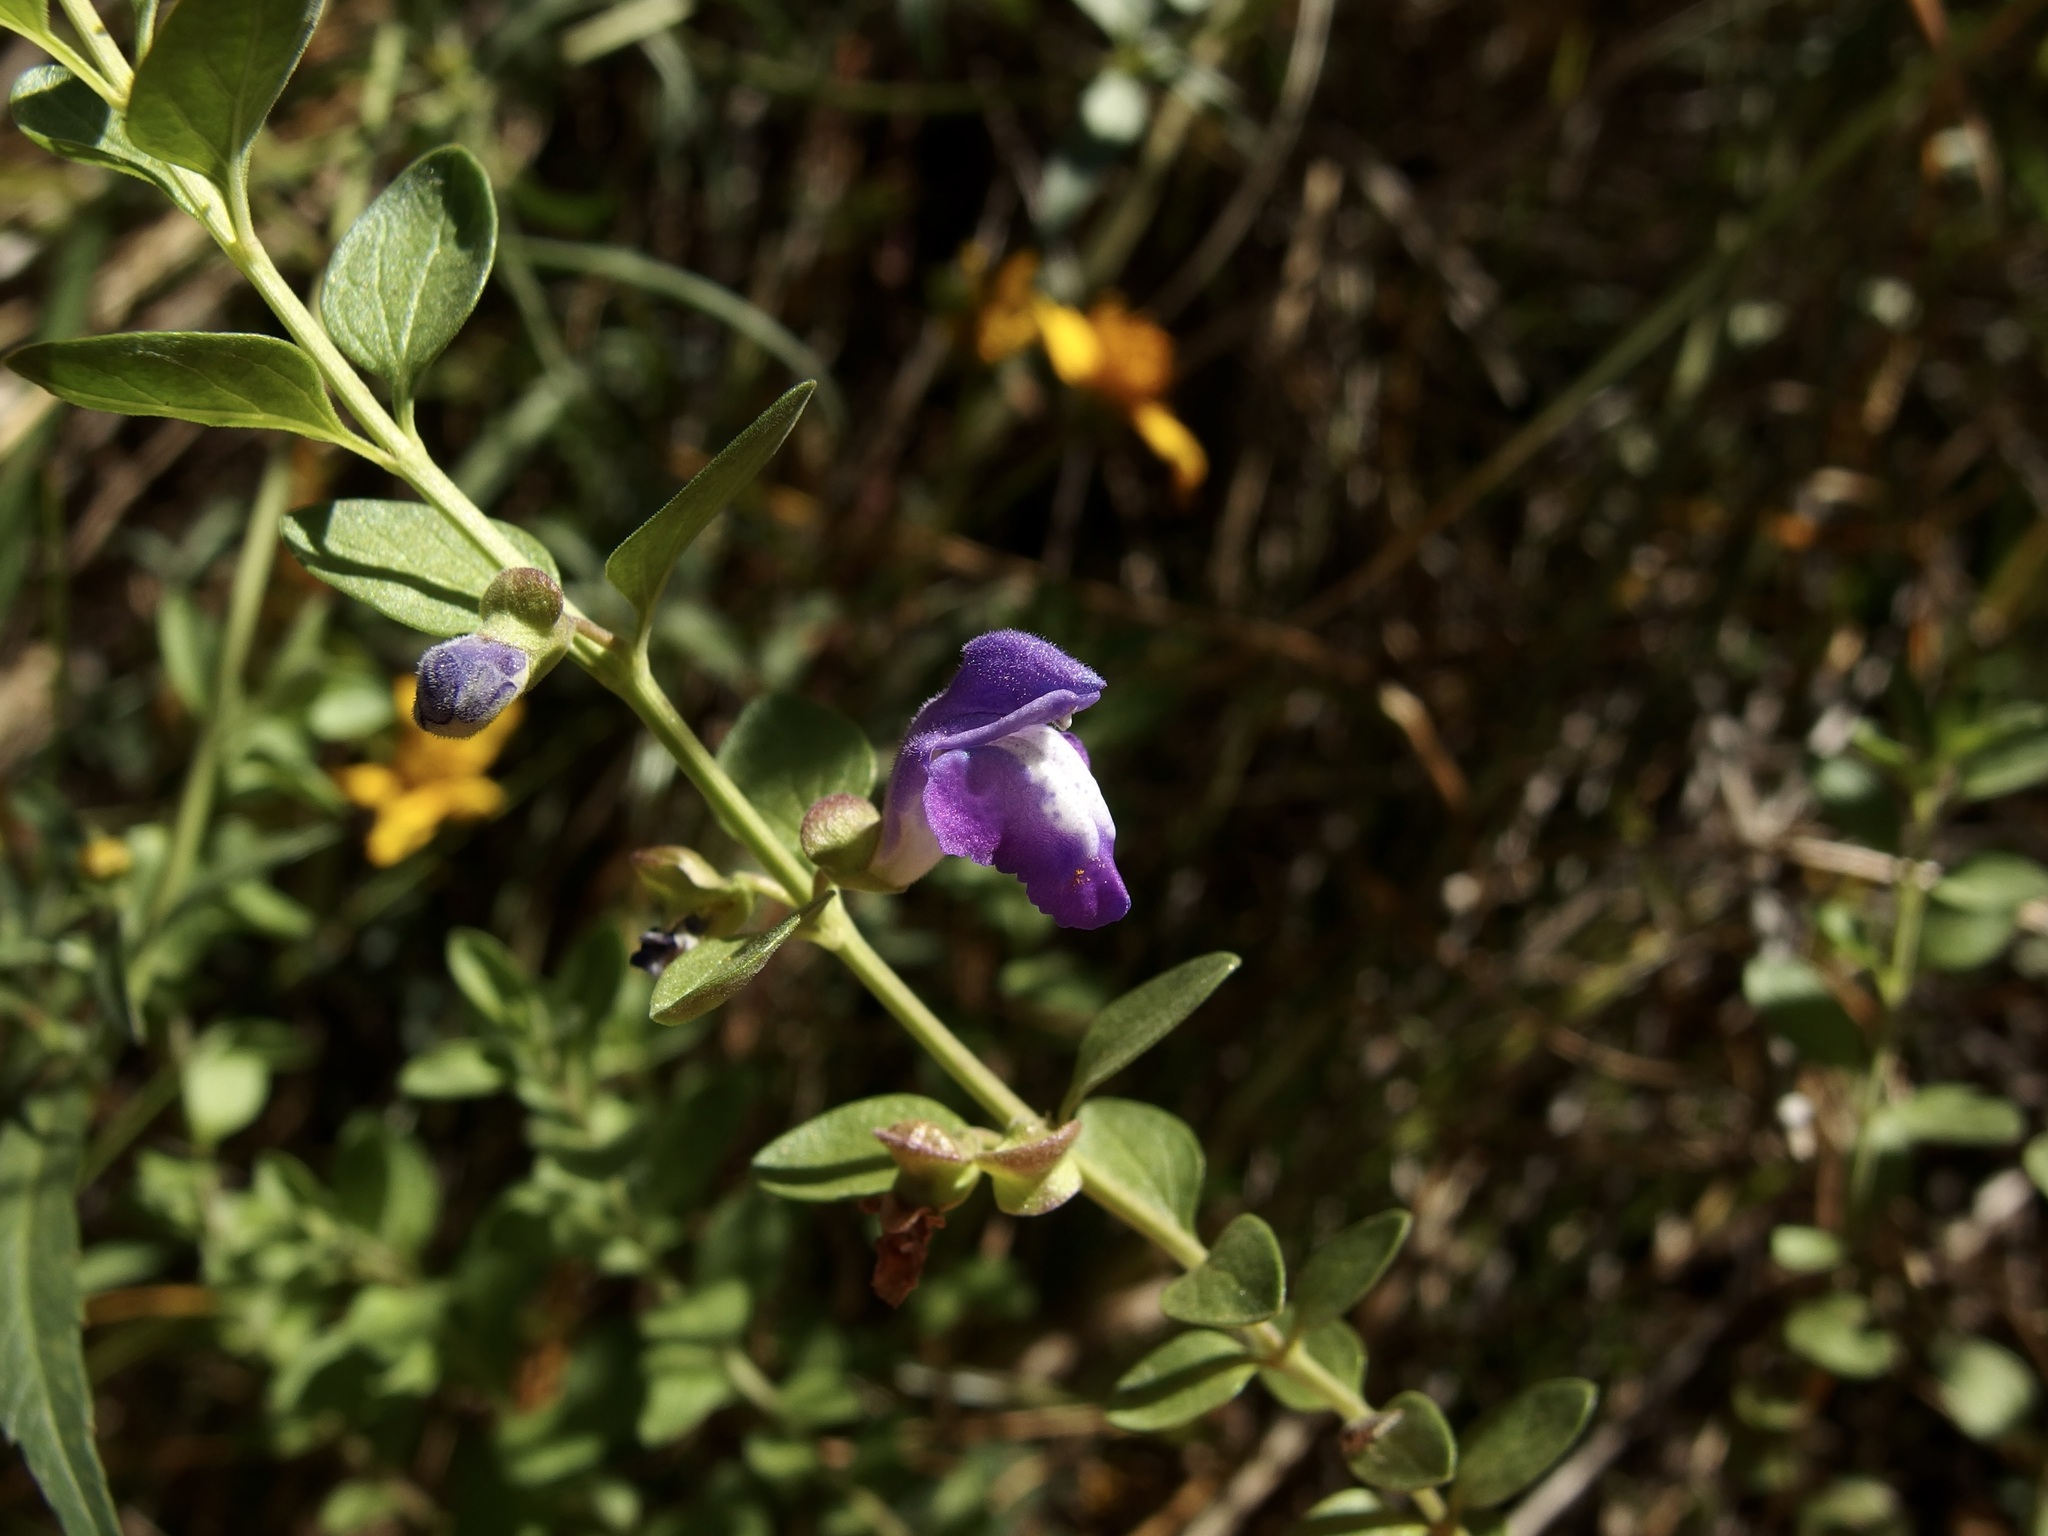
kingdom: Plantae
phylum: Tracheophyta
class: Magnoliopsida
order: Lamiales
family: Lamiaceae
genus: Scutellaria
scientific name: Scutellaria potosina
